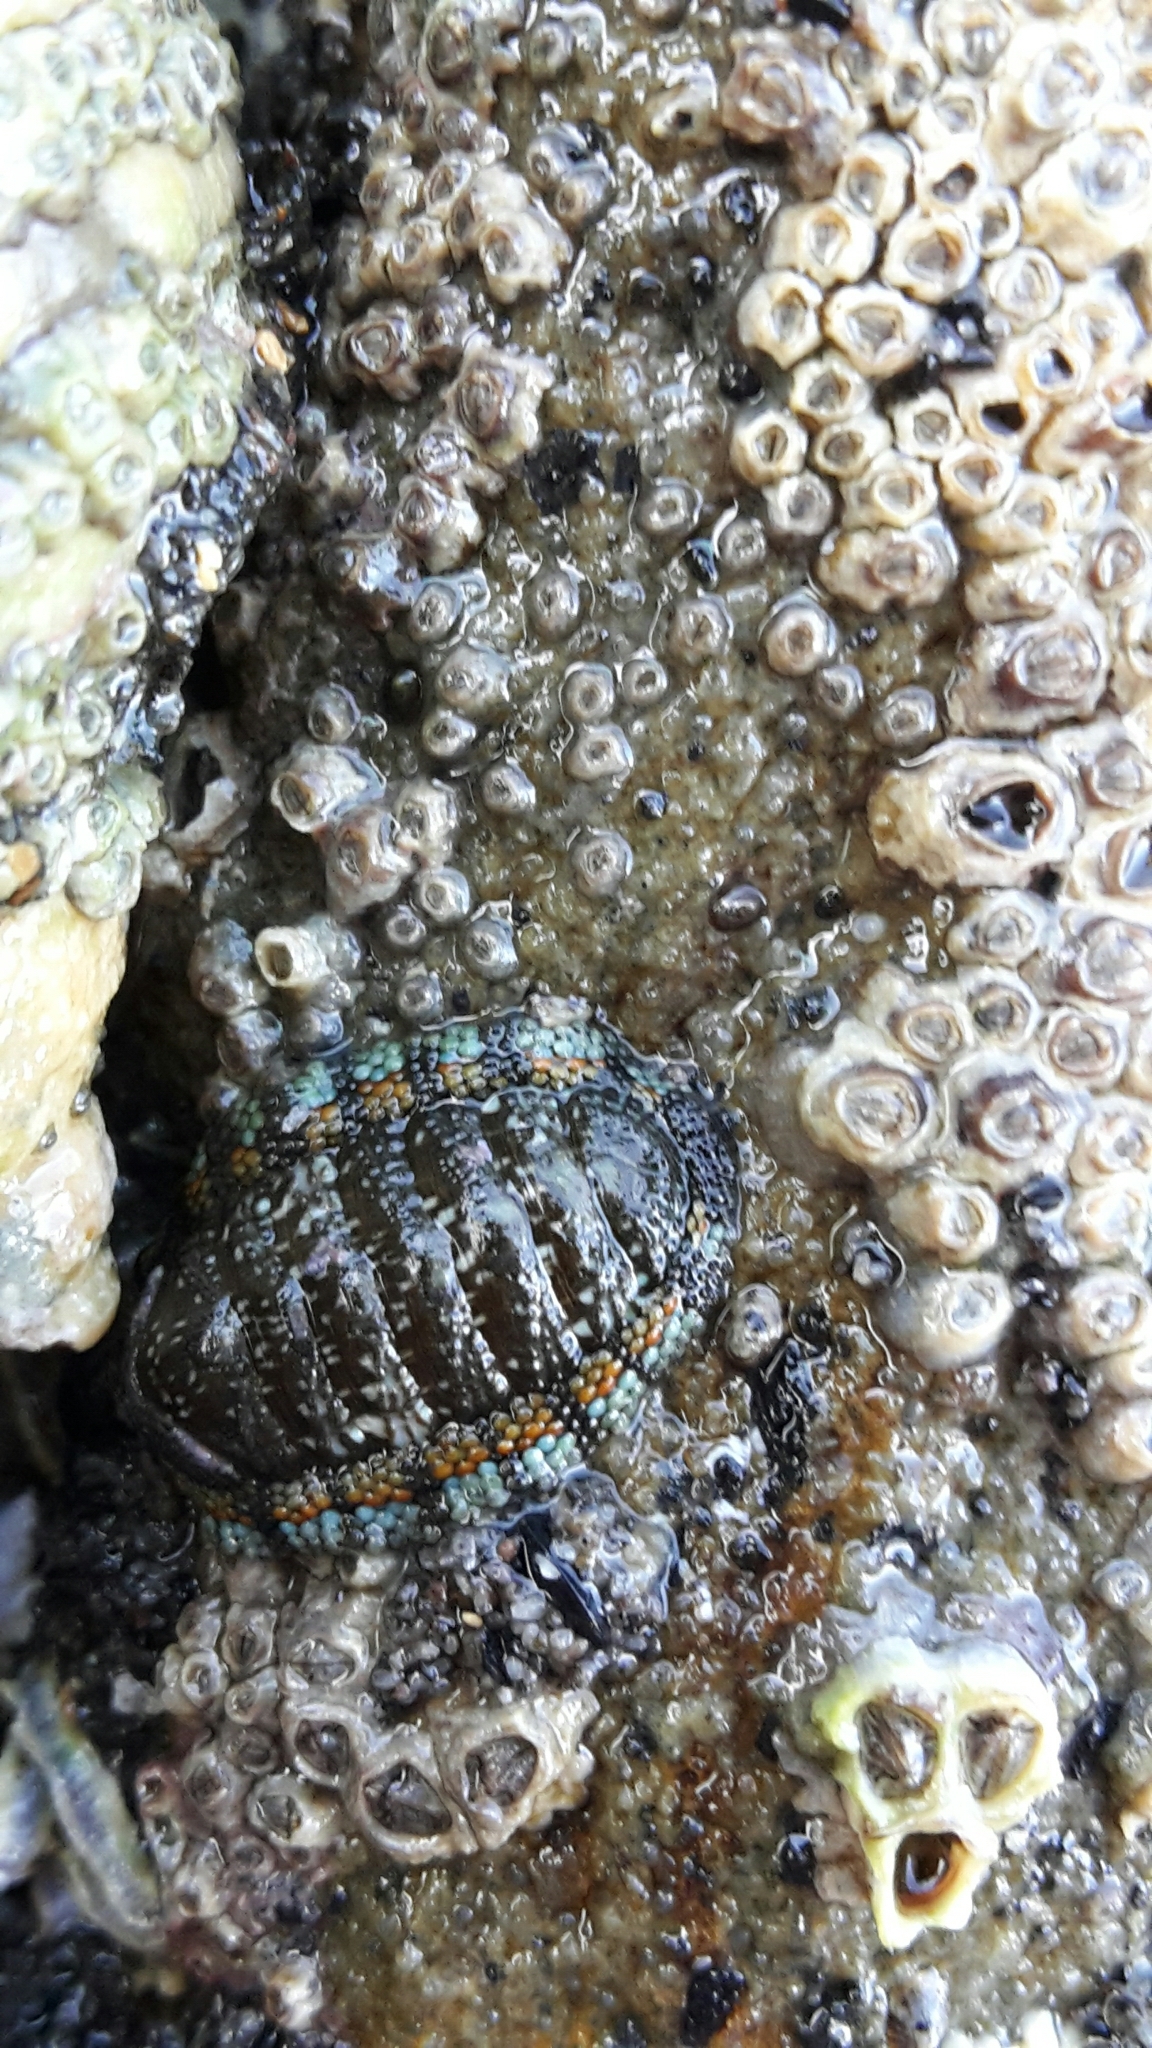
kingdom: Animalia
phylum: Mollusca
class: Polyplacophora
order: Chitonida
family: Chitonidae
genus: Sypharochiton
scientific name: Sypharochiton sinclairi
